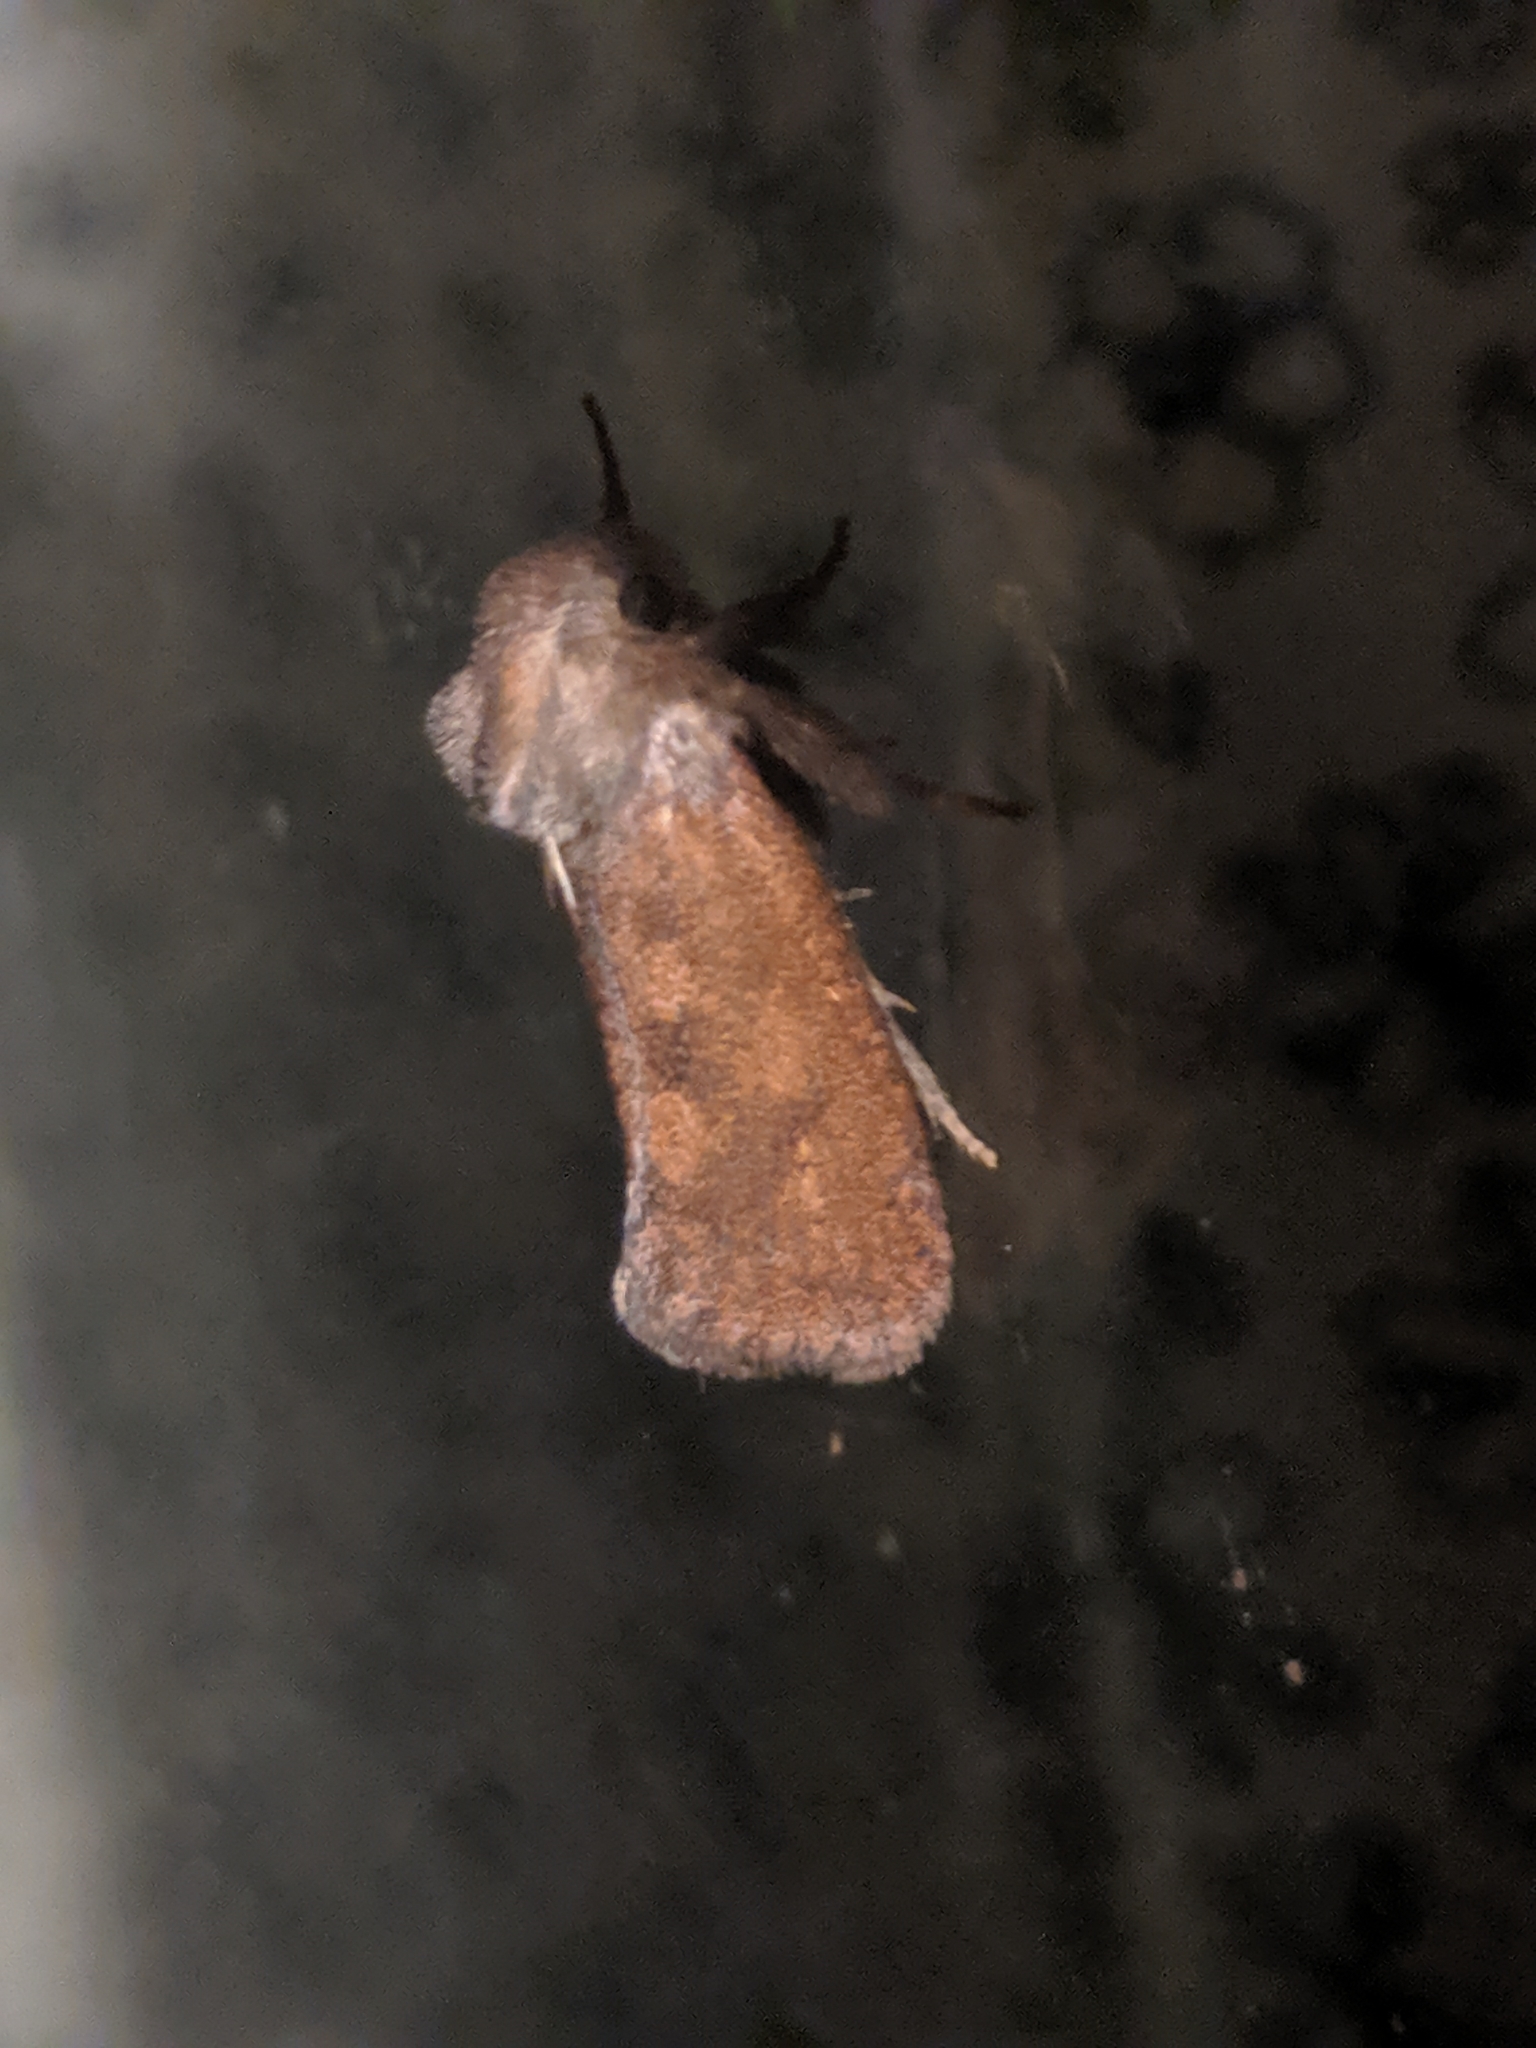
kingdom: Animalia
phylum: Arthropoda
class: Insecta
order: Lepidoptera
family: Tineidae
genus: Acrolophus
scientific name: Acrolophus plumifrontella
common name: Eastern grass tubeworm moth
